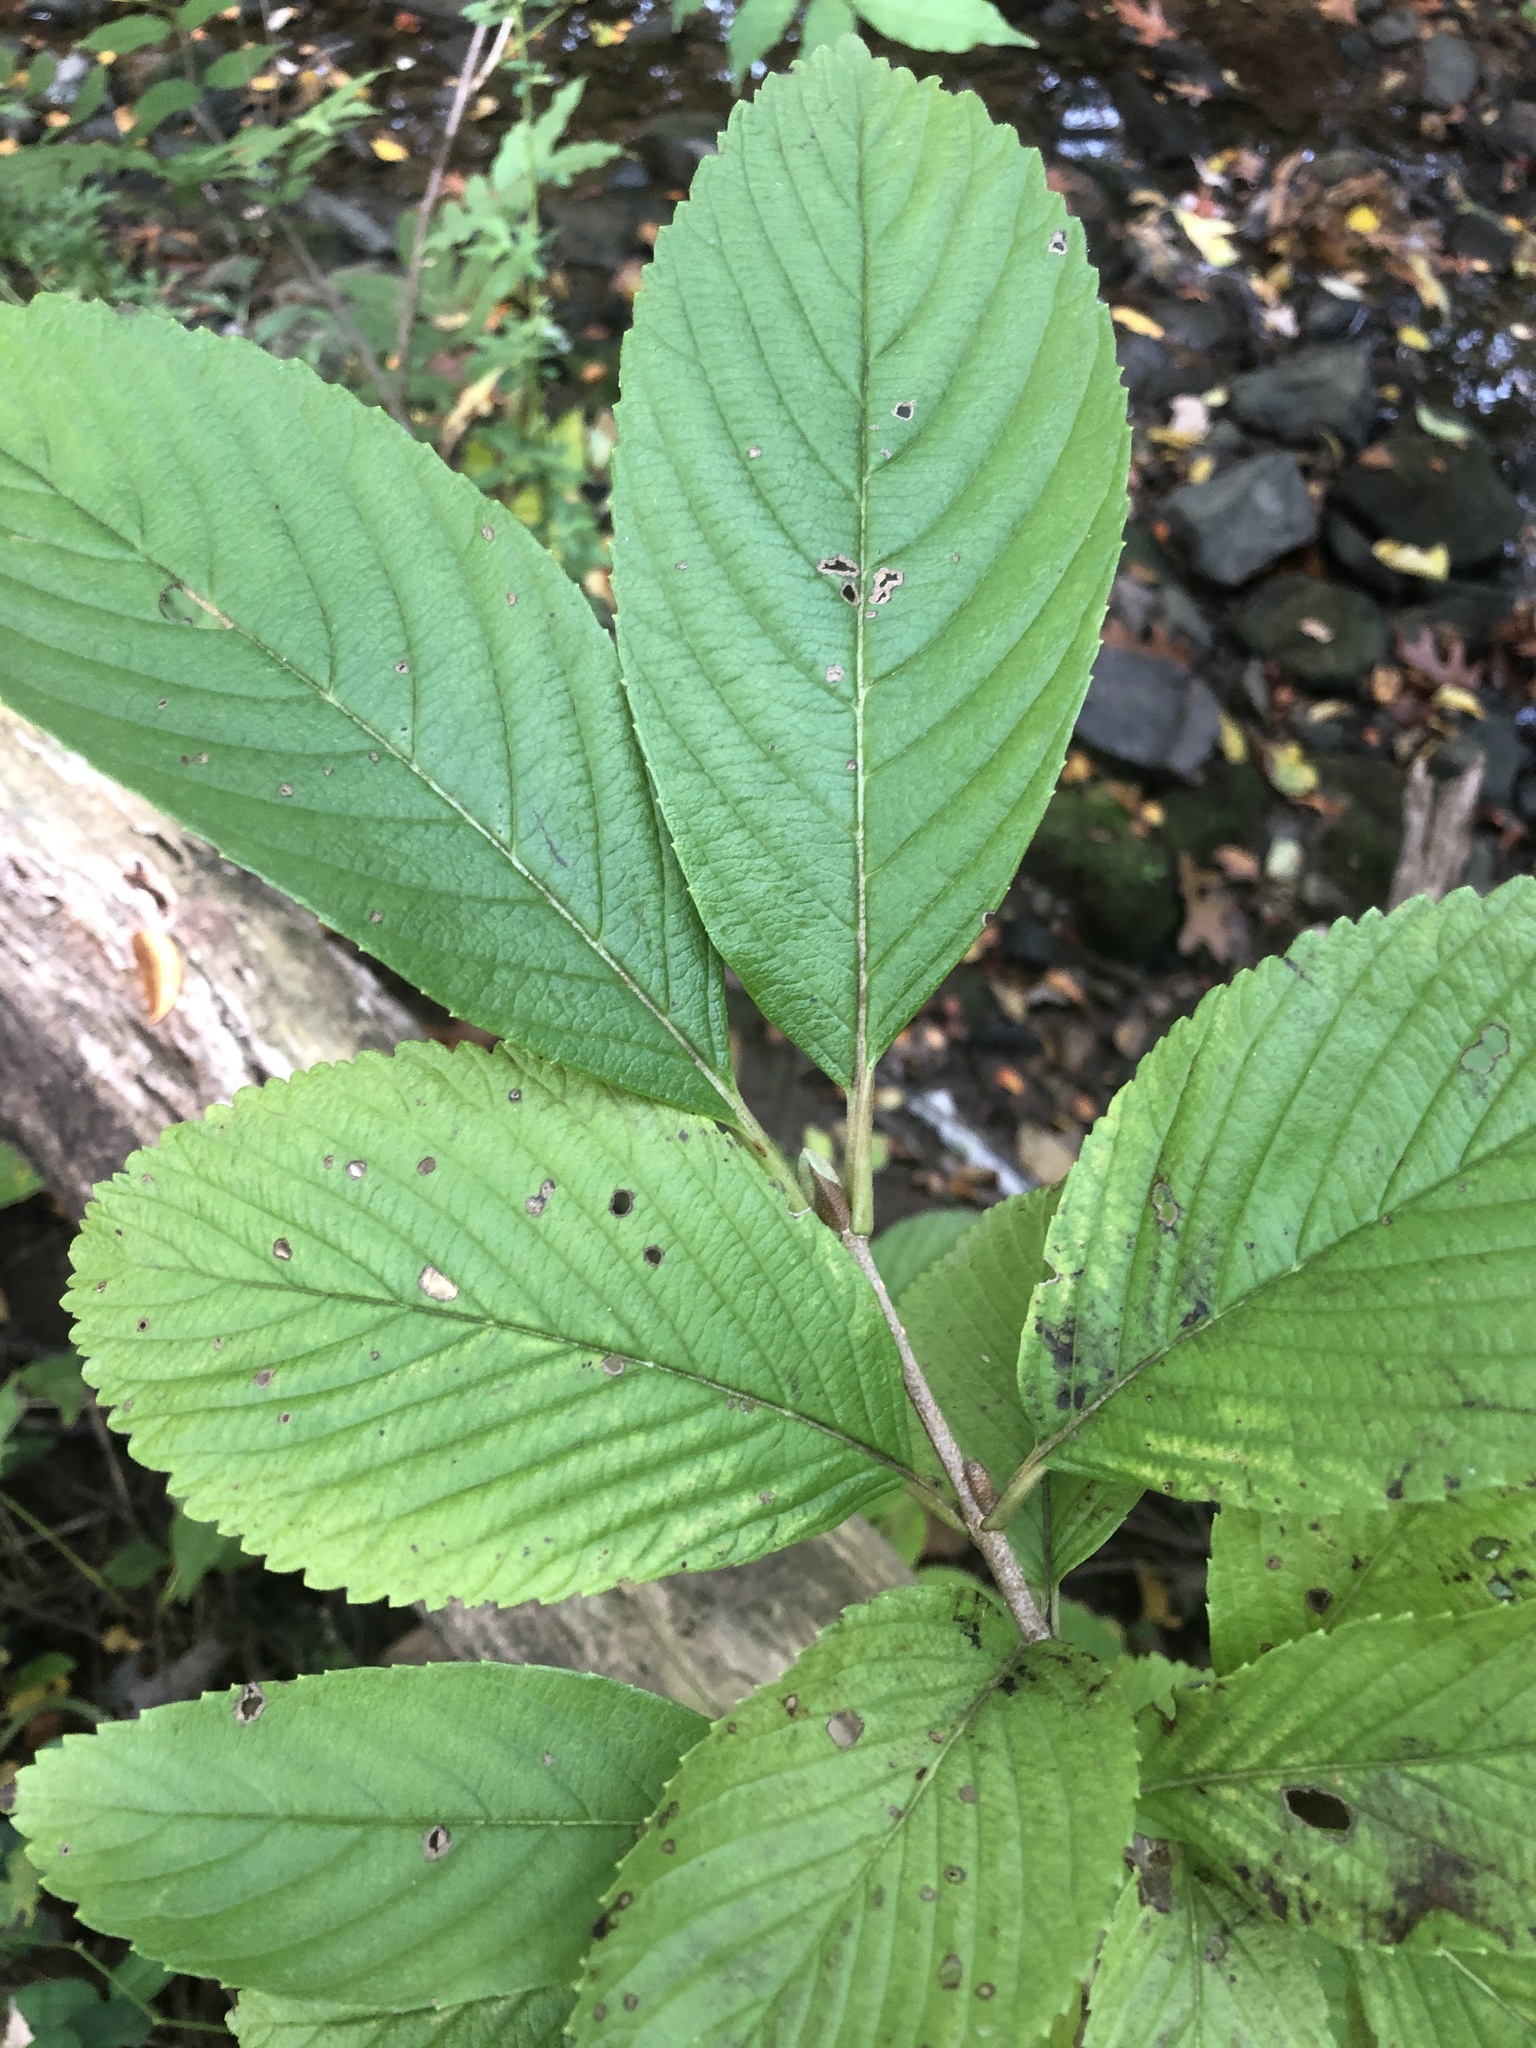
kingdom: Plantae
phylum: Tracheophyta
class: Magnoliopsida
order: Dipsacales
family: Viburnaceae
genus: Viburnum
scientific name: Viburnum sieboldii
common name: Siebold's arrowwood
